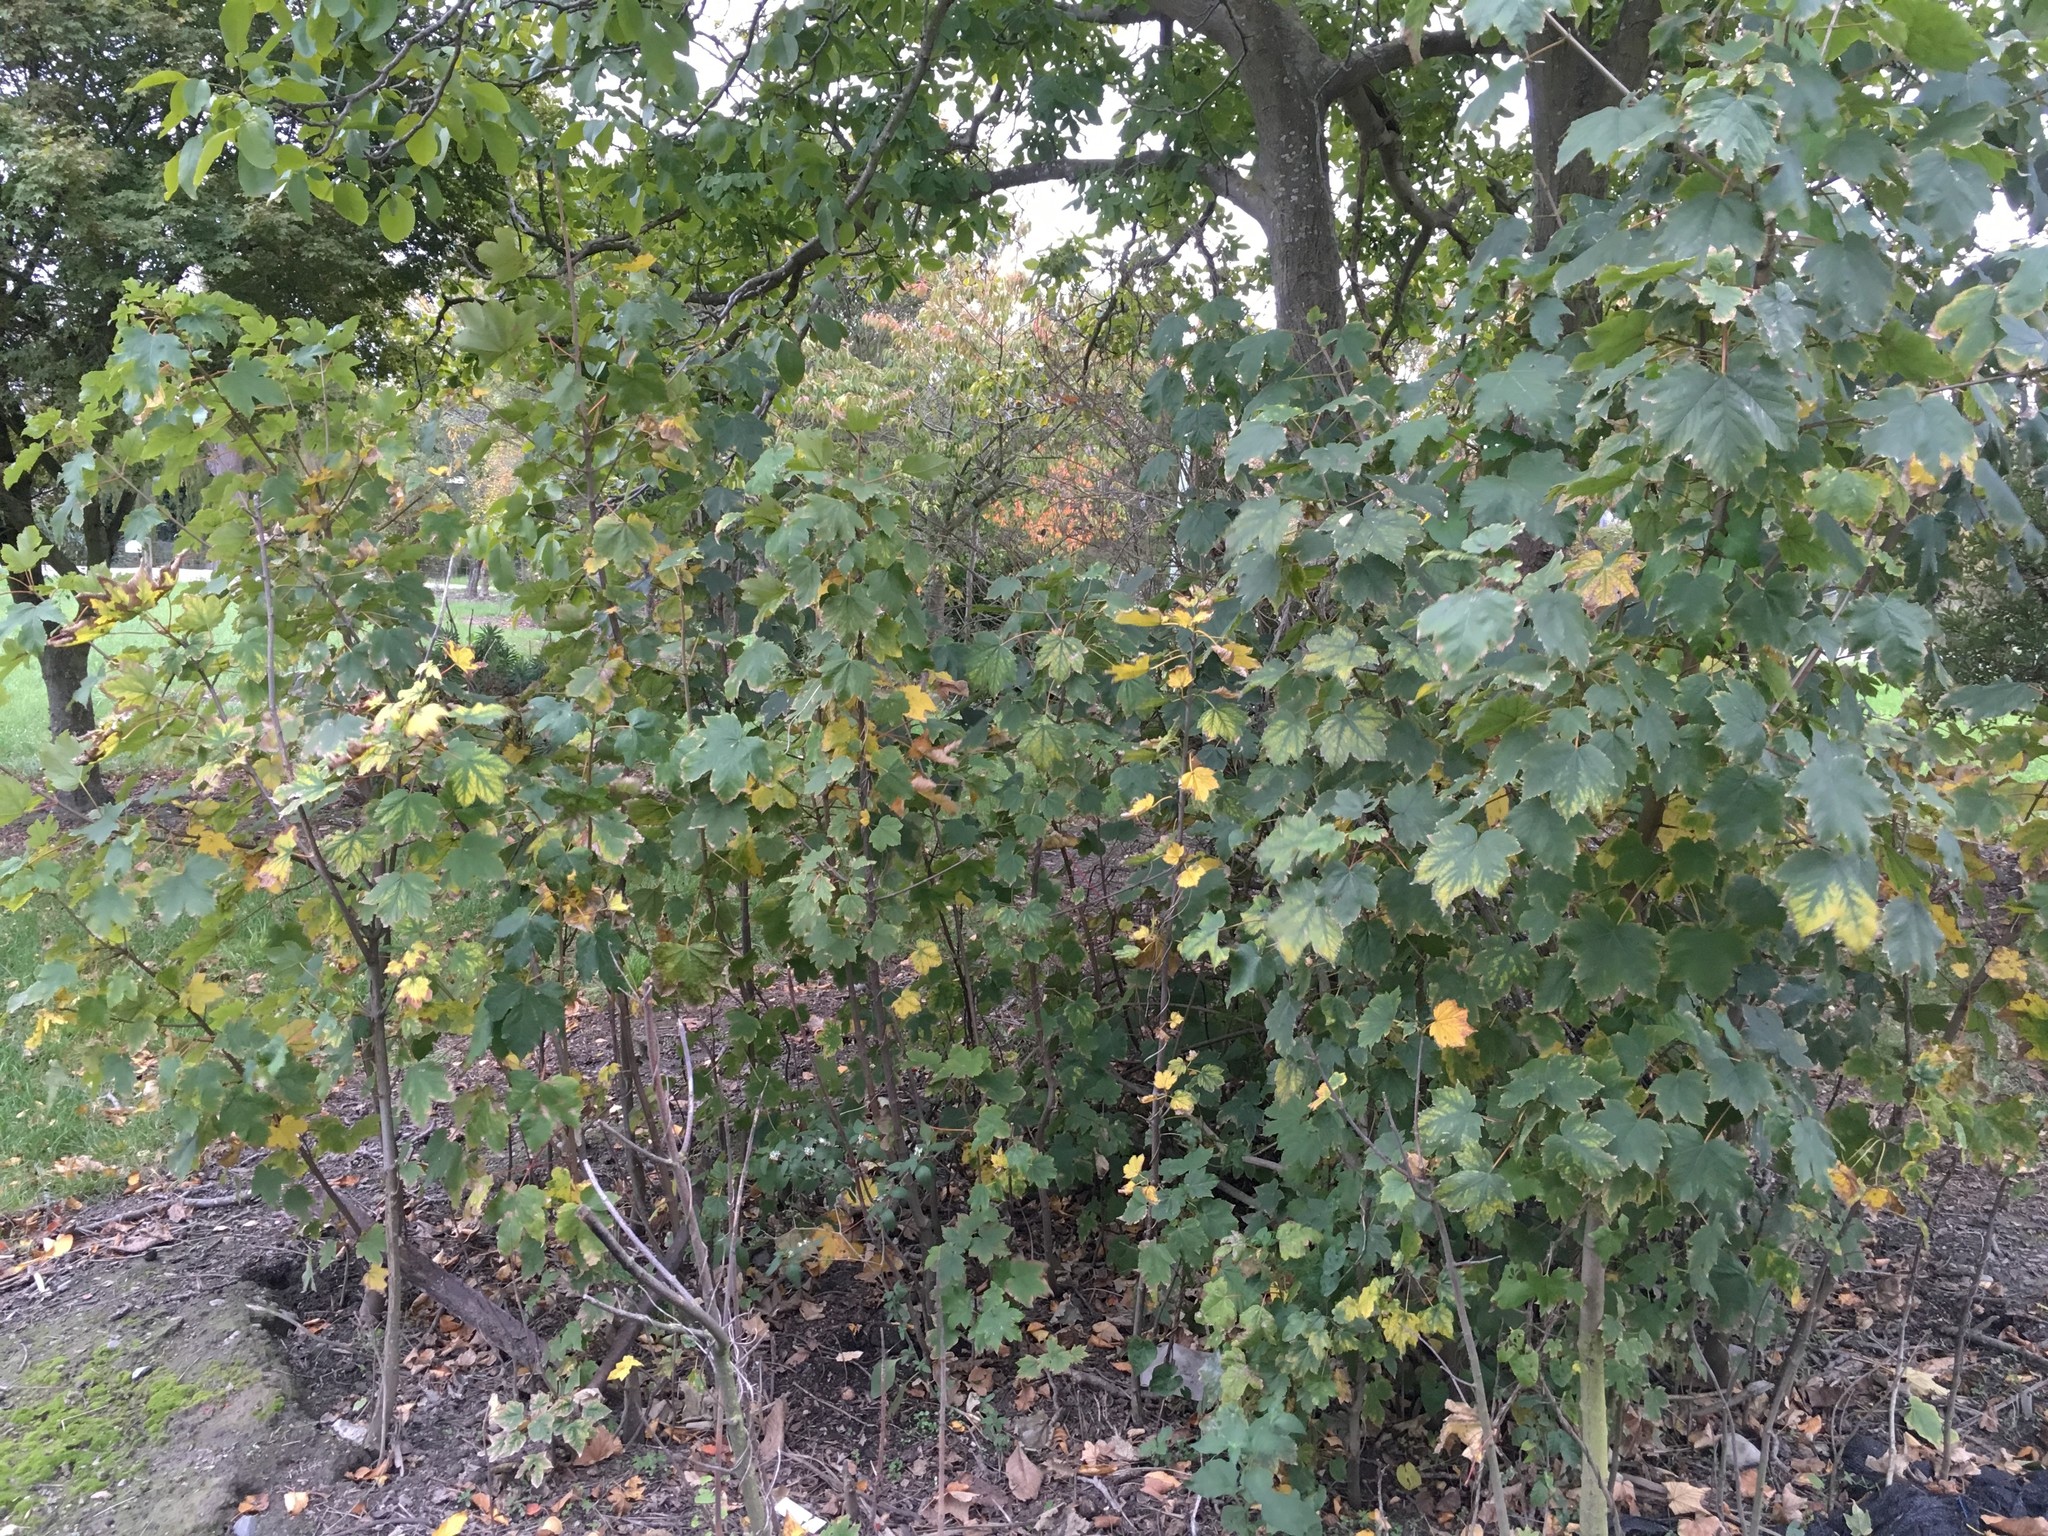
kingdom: Plantae
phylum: Tracheophyta
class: Magnoliopsida
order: Sapindales
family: Sapindaceae
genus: Acer
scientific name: Acer pseudoplatanus
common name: Sycamore
